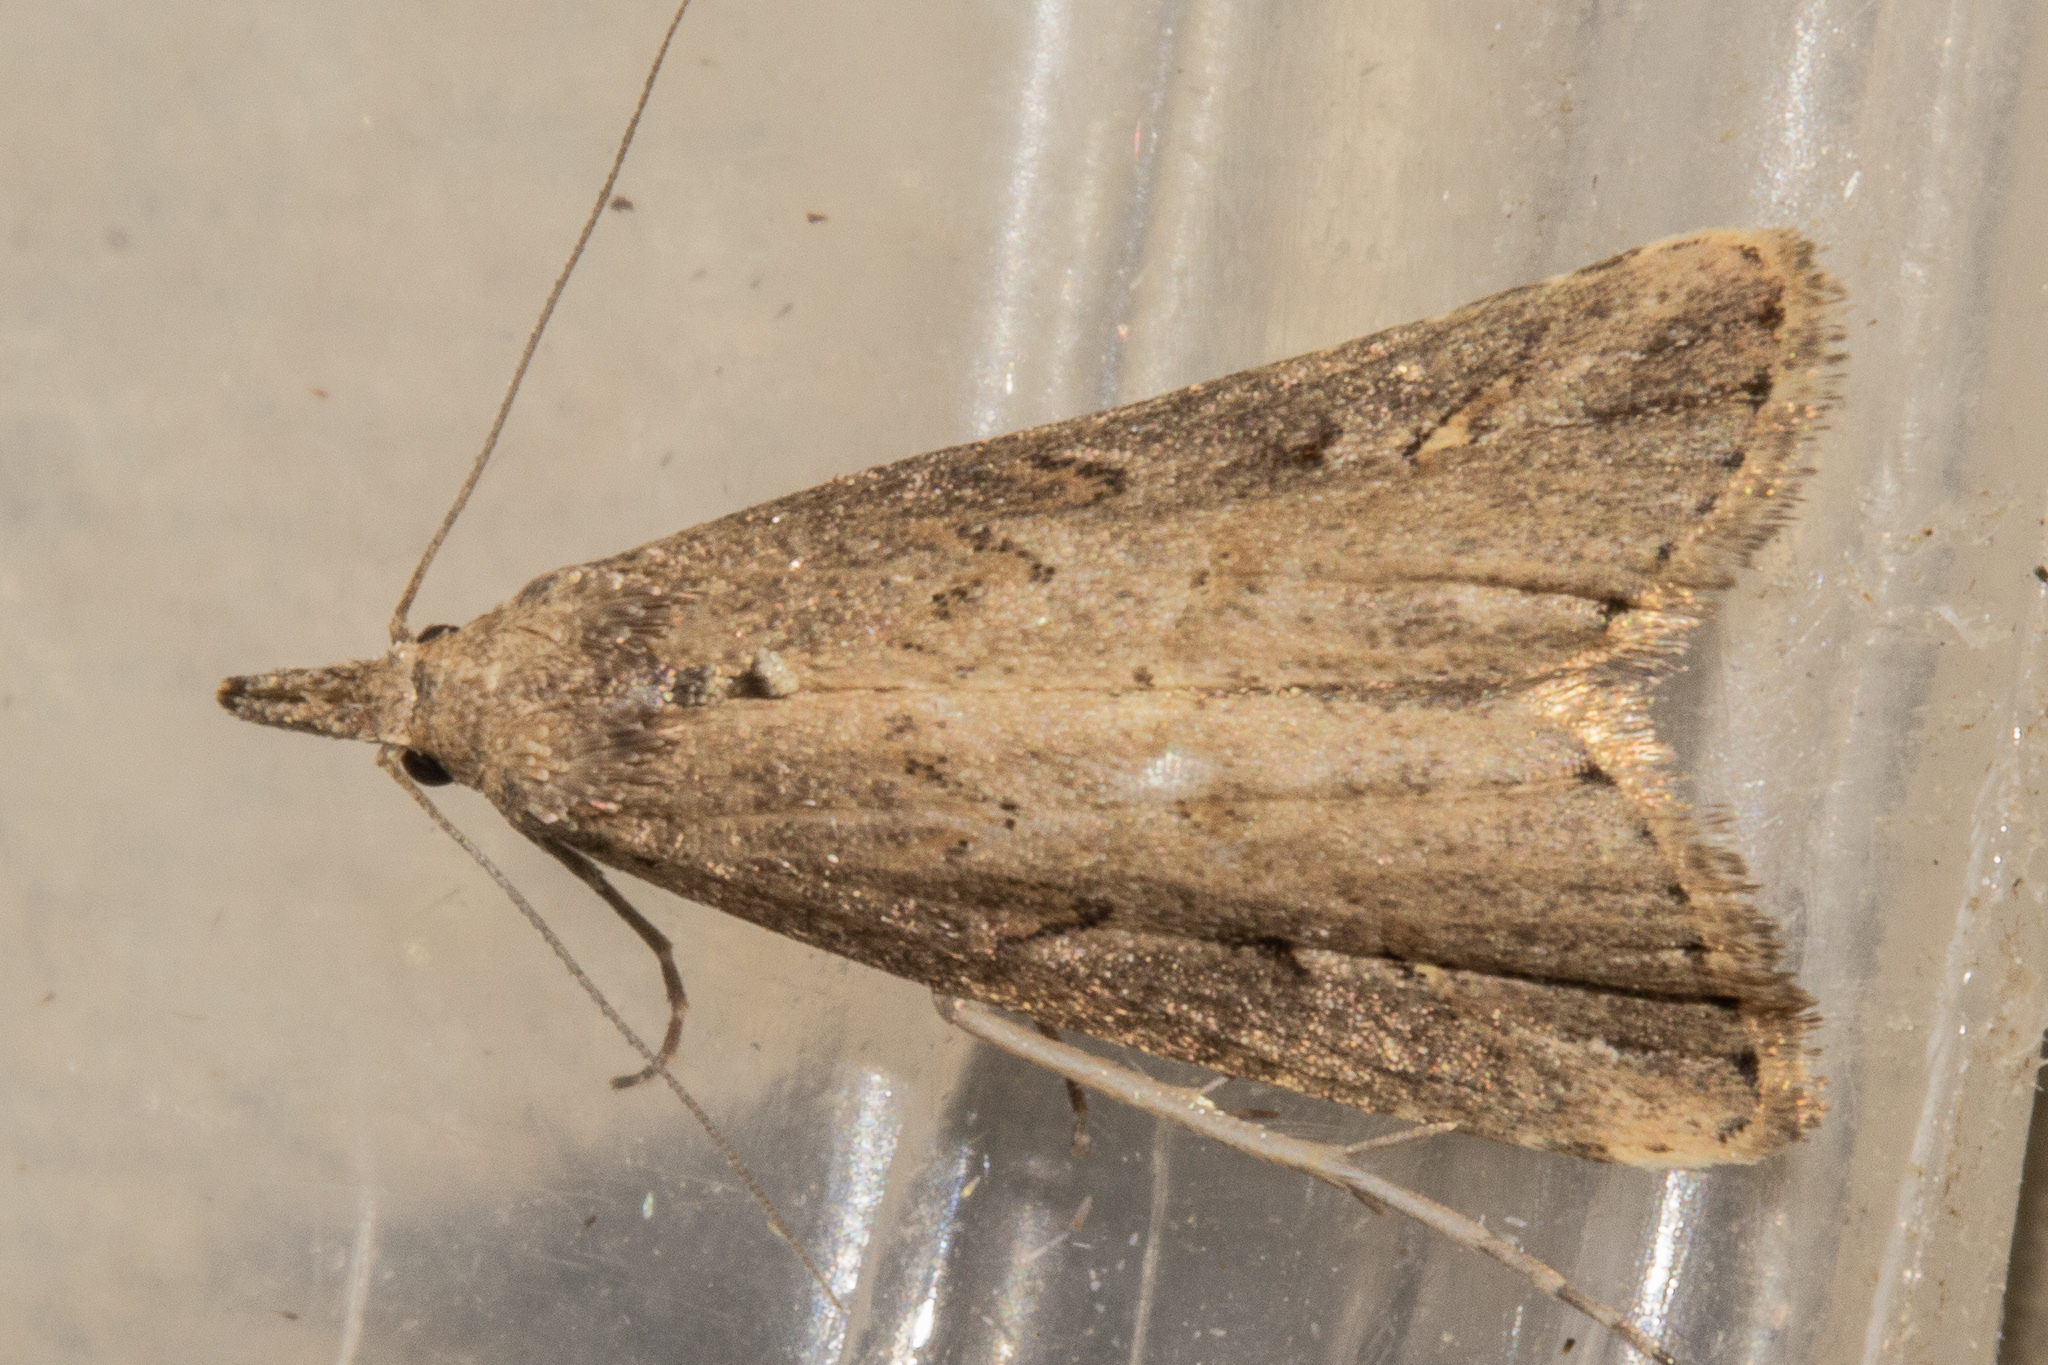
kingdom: Animalia
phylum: Arthropoda
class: Insecta
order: Lepidoptera
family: Erebidae
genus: Schrankia
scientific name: Schrankia costaestrigalis
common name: Pinion-streaked snout
